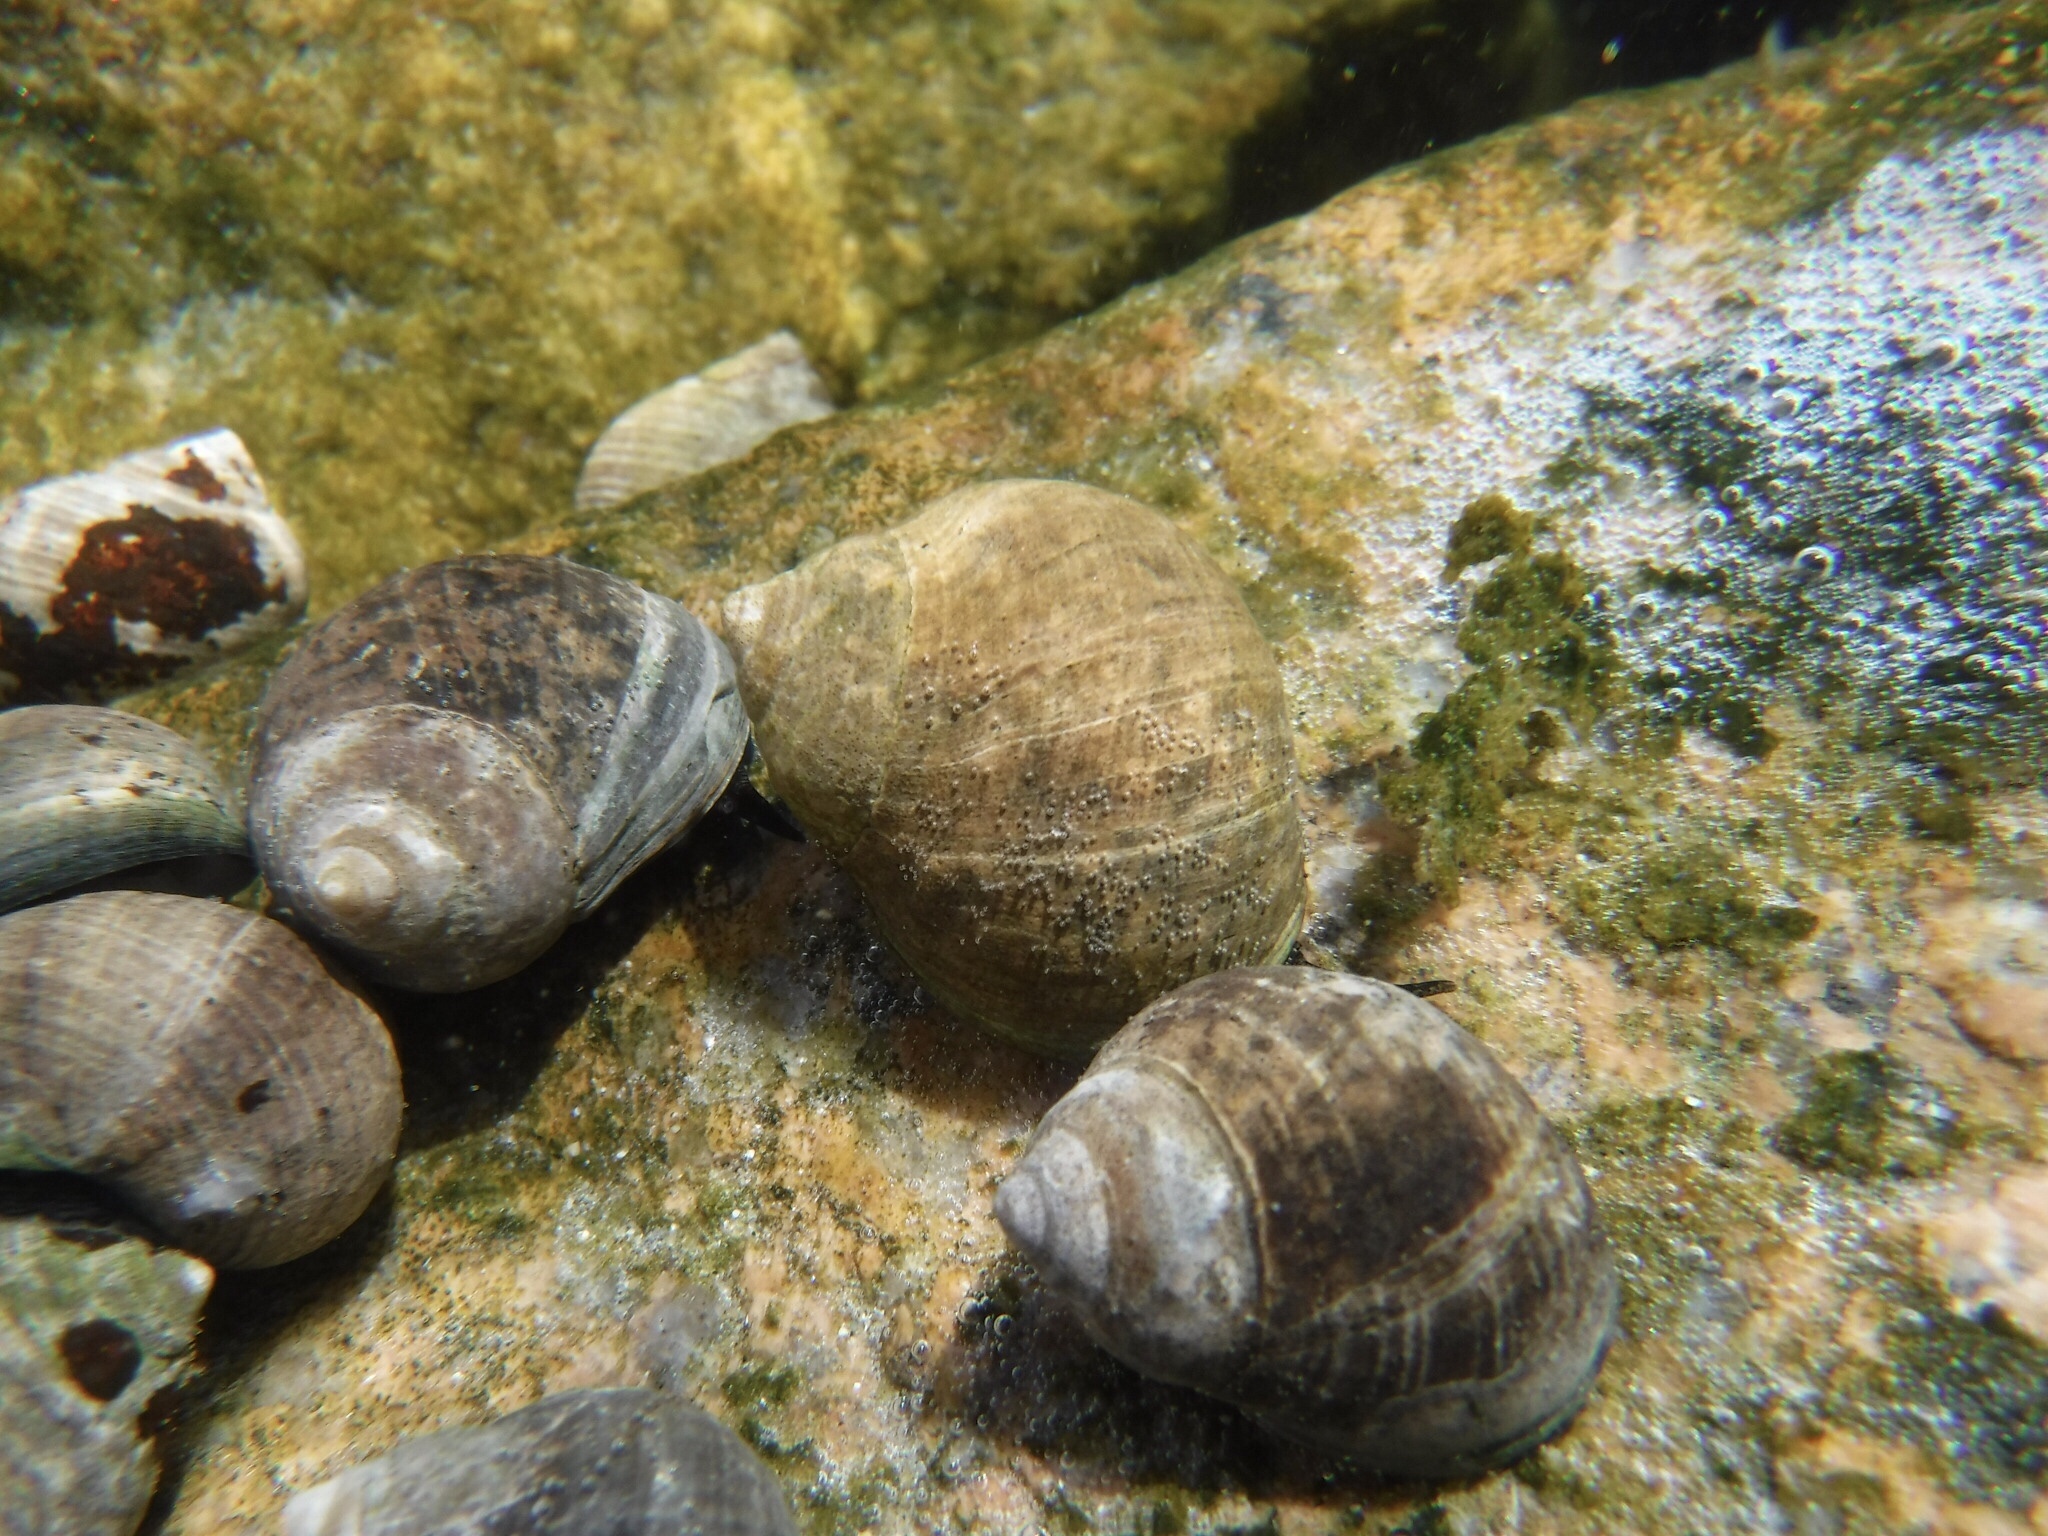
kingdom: Animalia
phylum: Mollusca
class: Gastropoda
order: Littorinimorpha
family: Littorinidae
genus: Littorina
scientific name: Littorina littorea
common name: Common periwinkle
